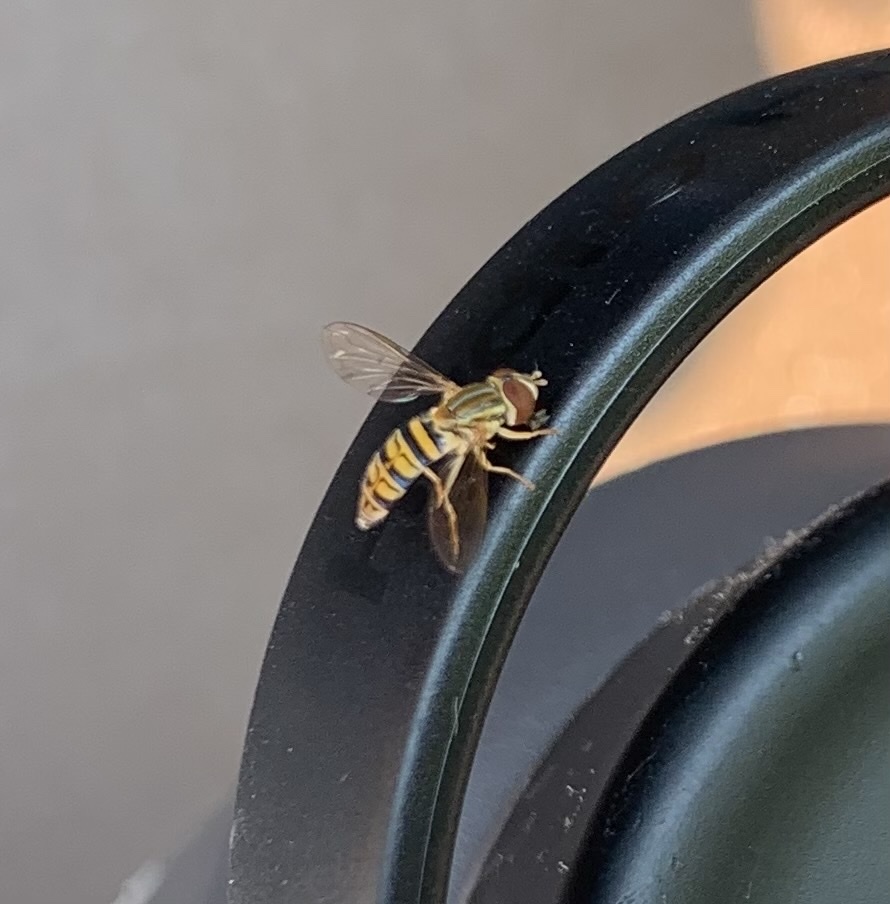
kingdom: Animalia
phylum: Arthropoda
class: Insecta
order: Diptera
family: Syrphidae
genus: Toxomerus
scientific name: Toxomerus politus
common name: Maize calligrapher
